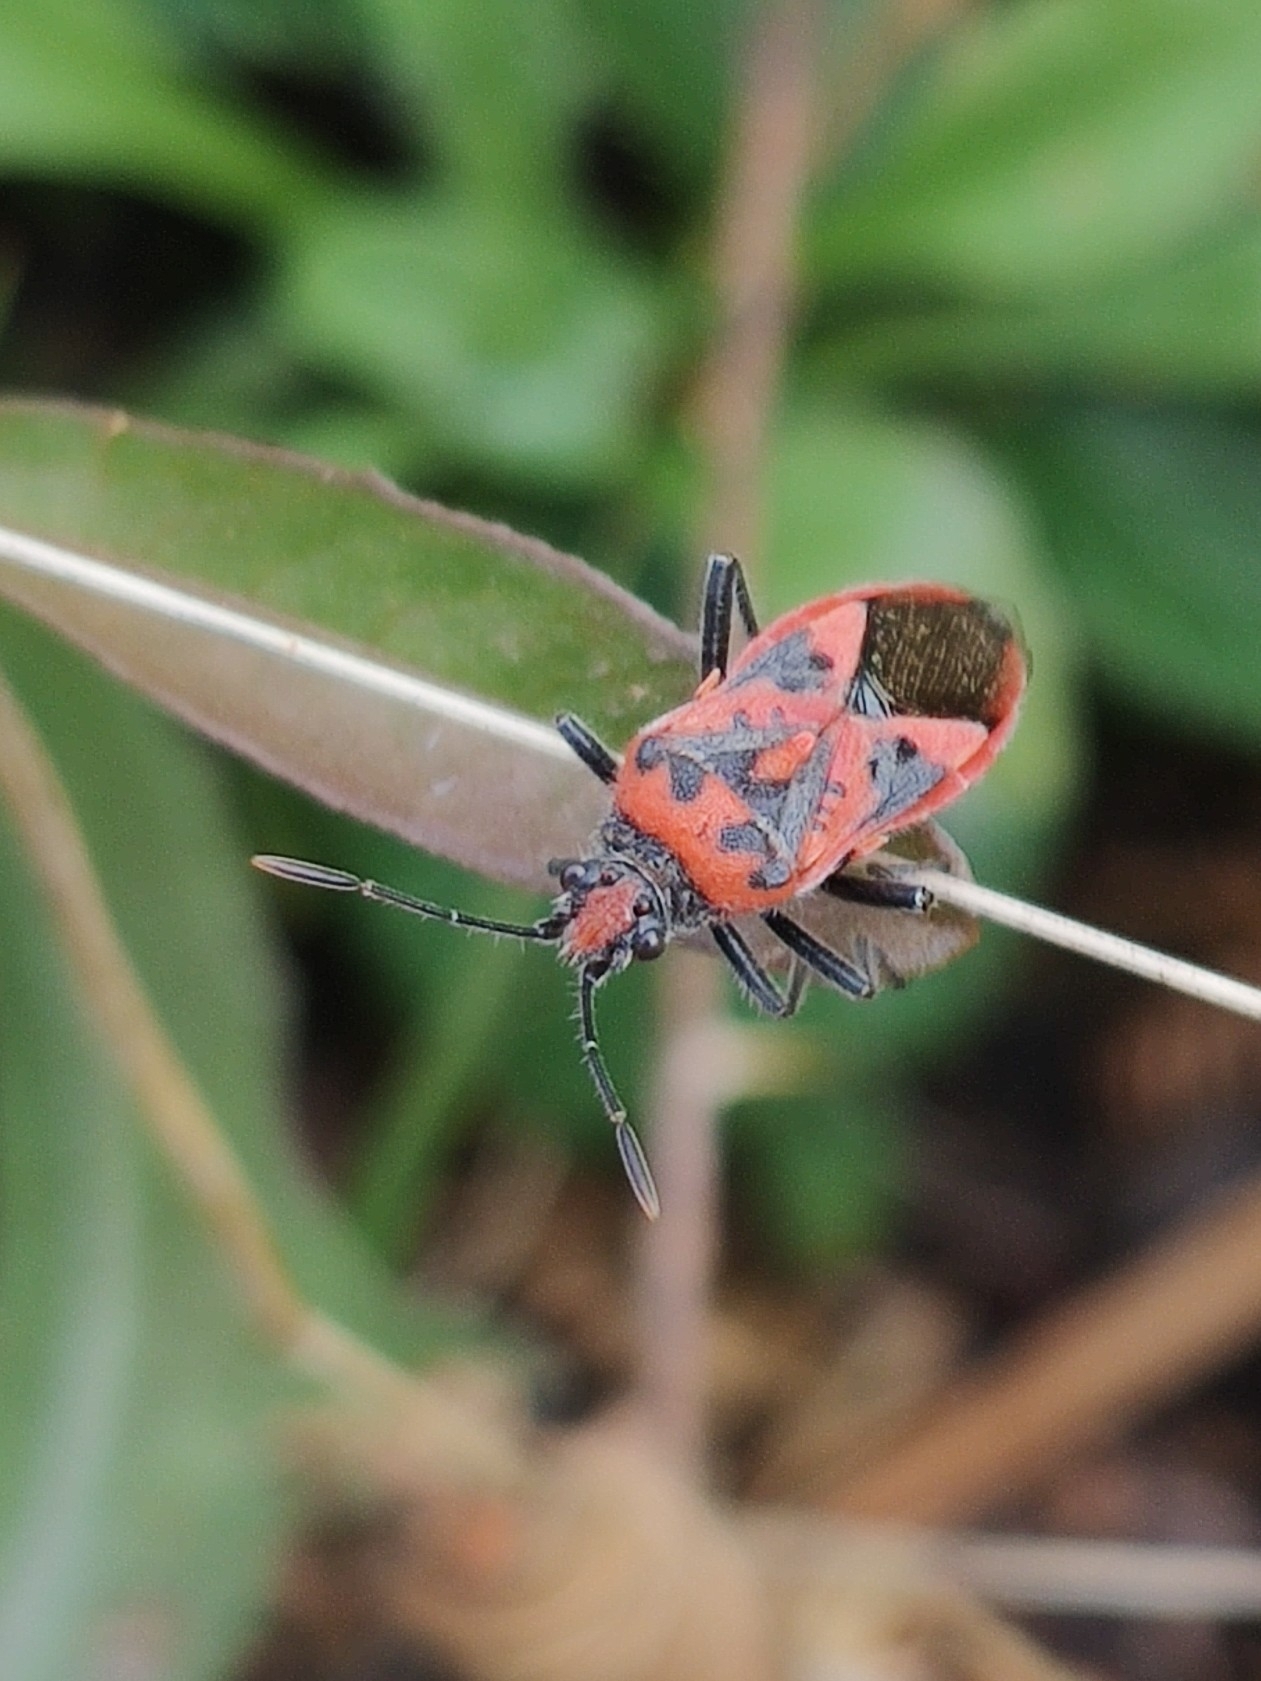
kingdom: Animalia
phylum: Arthropoda
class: Insecta
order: Hemiptera
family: Rhopalidae
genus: Corizus
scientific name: Corizus hyoscyami
